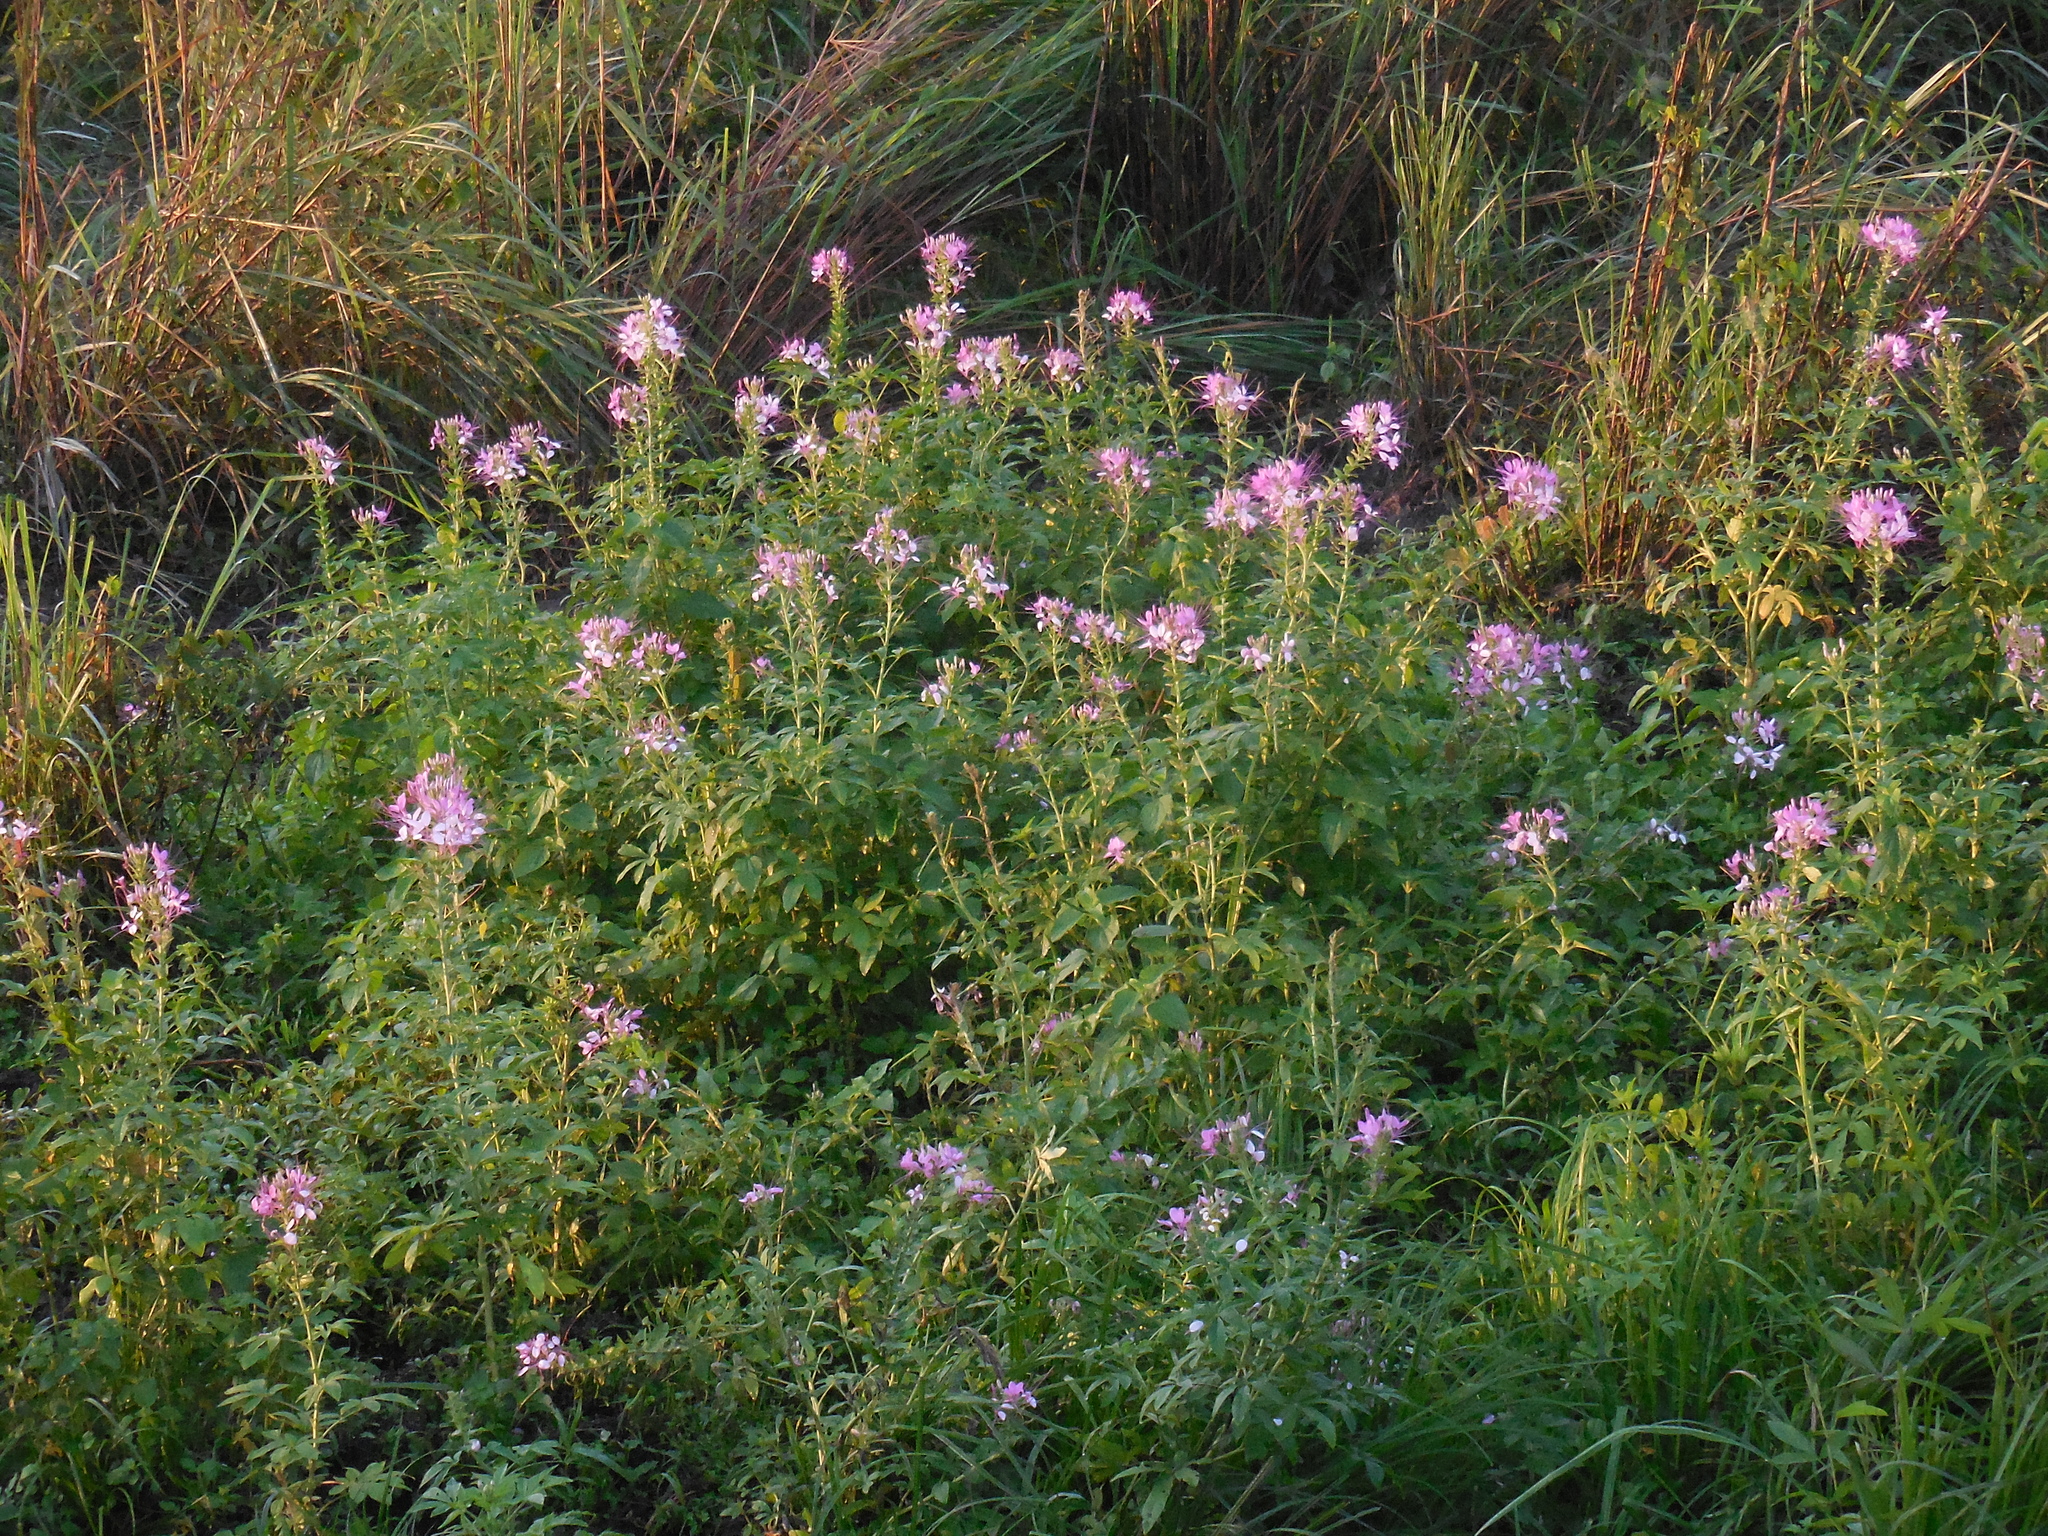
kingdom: Plantae
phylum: Tracheophyta
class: Magnoliopsida
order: Brassicales
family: Cleomaceae
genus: Tarenaya
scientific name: Tarenaya houtteana
